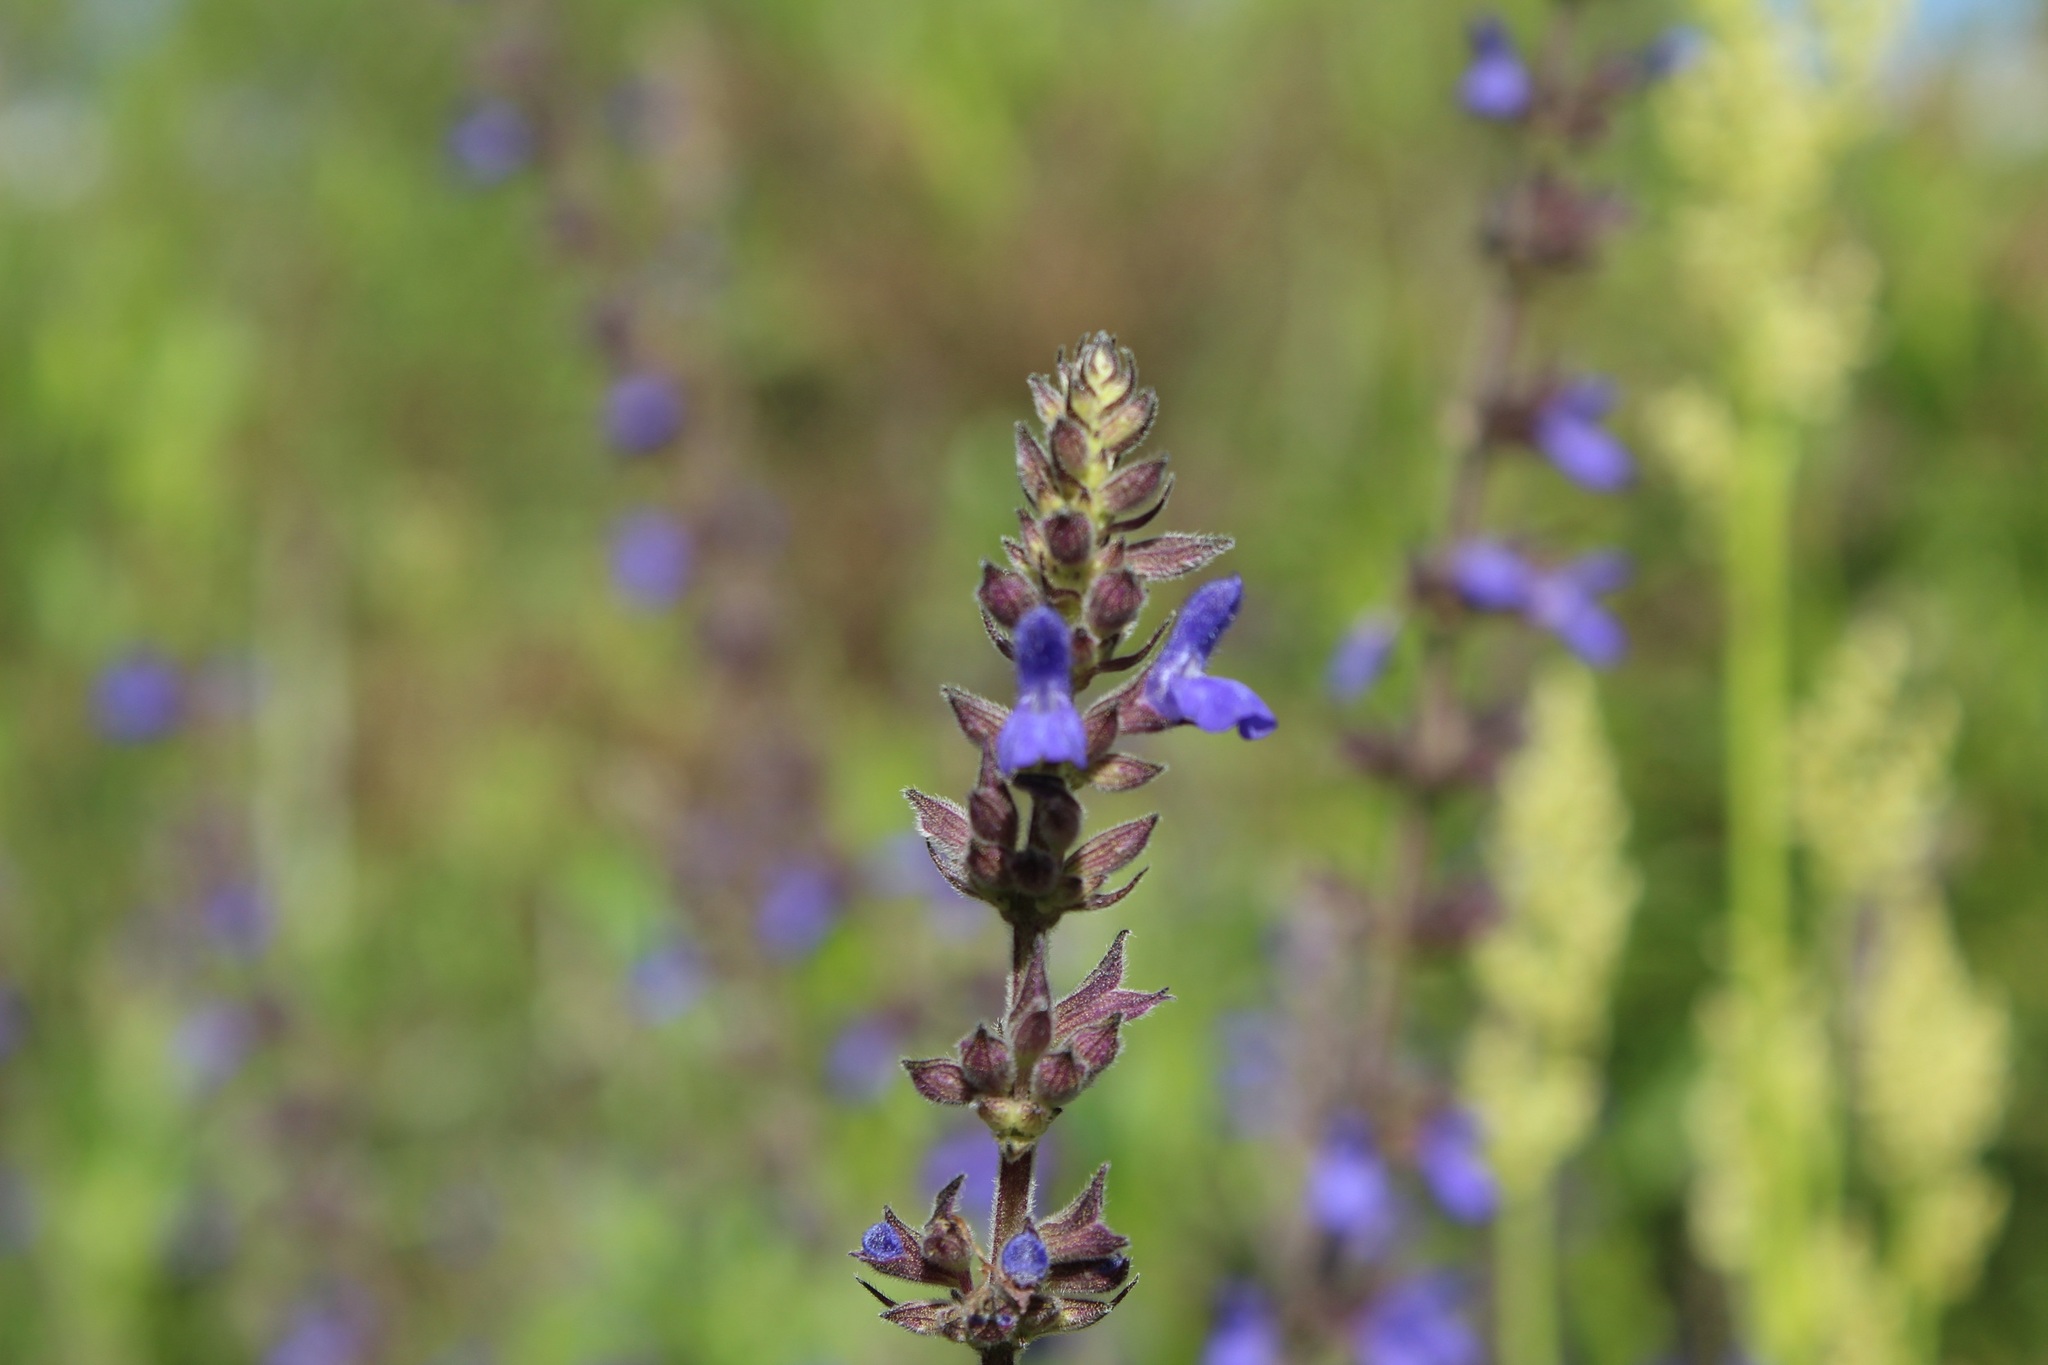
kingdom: Plantae
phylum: Tracheophyta
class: Magnoliopsida
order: Lamiales
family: Lamiaceae
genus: Salvia
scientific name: Salvia bogotensis
